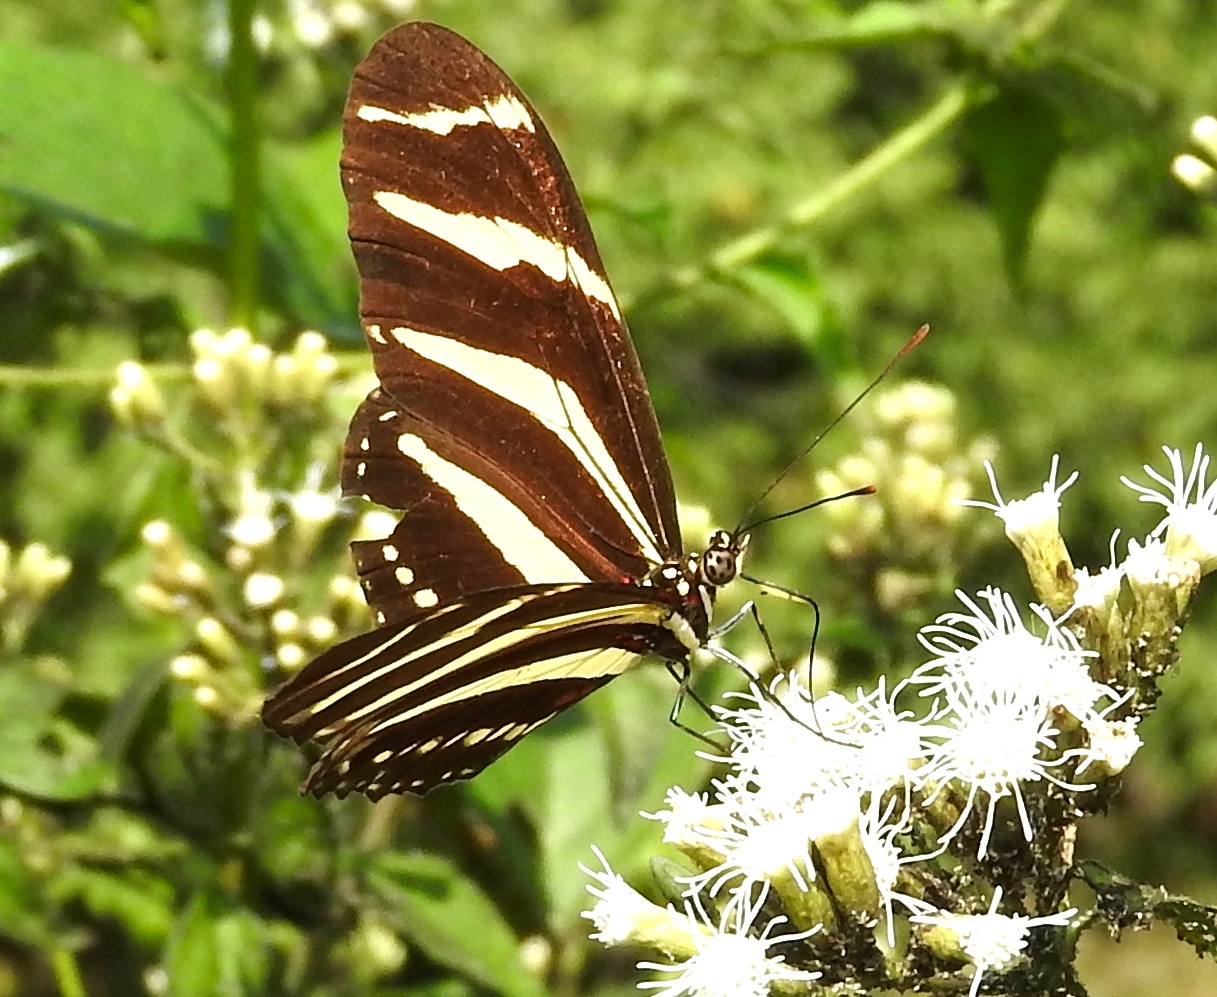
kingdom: Animalia
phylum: Arthropoda
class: Insecta
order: Lepidoptera
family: Nymphalidae
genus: Heliconius
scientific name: Heliconius charithonia
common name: Zebra long wing
